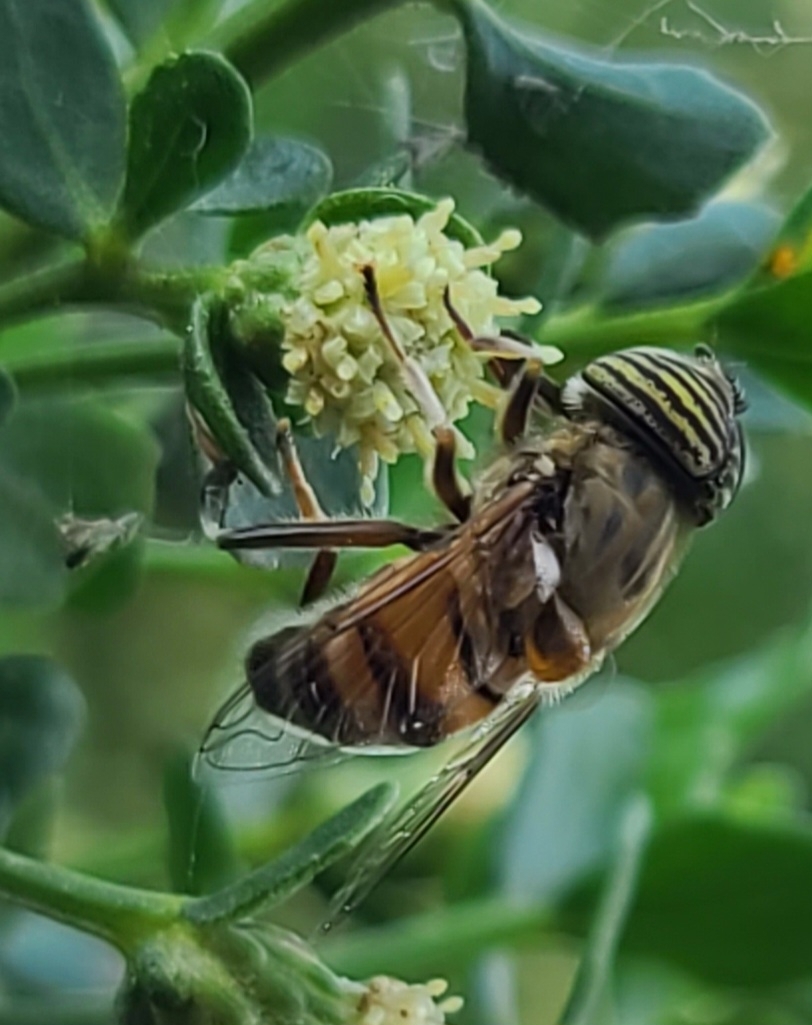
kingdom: Animalia
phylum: Arthropoda
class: Insecta
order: Diptera
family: Syrphidae
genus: Eristalinus
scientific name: Eristalinus taeniops
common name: Syrphid fly
